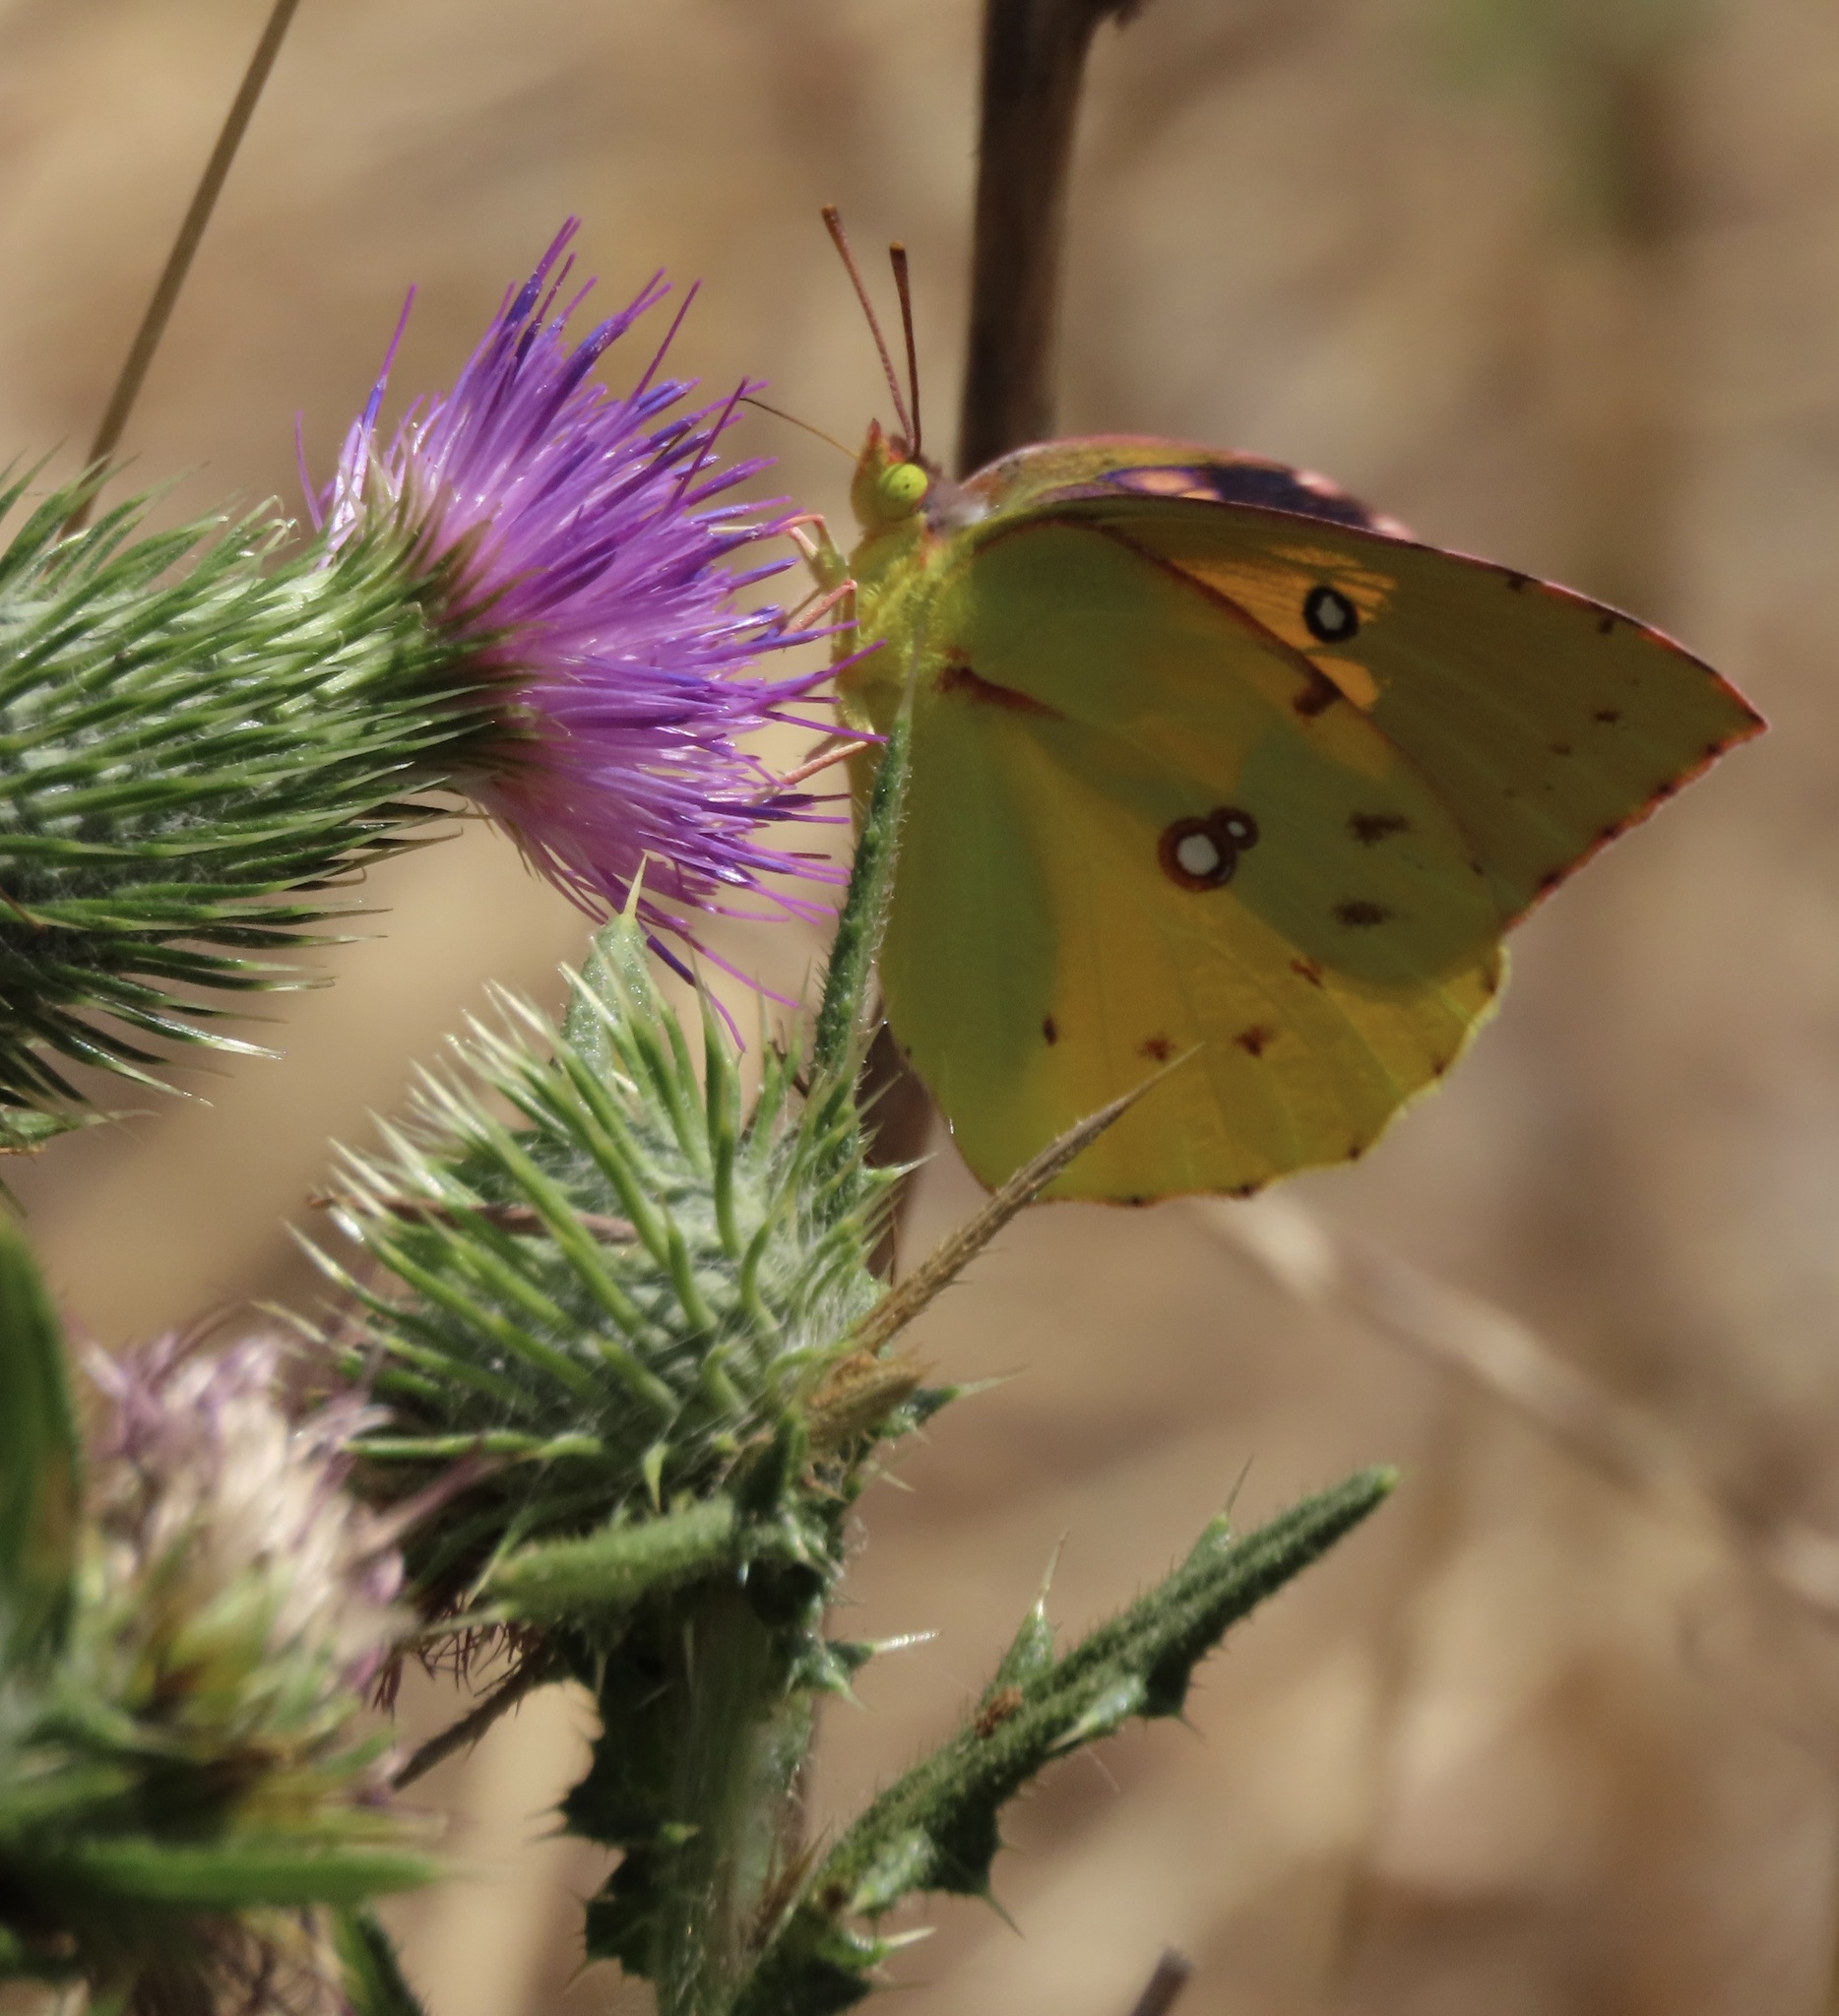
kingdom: Animalia
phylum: Arthropoda
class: Insecta
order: Lepidoptera
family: Pieridae
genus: Zerene
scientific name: Zerene eurydice
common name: California dogface
